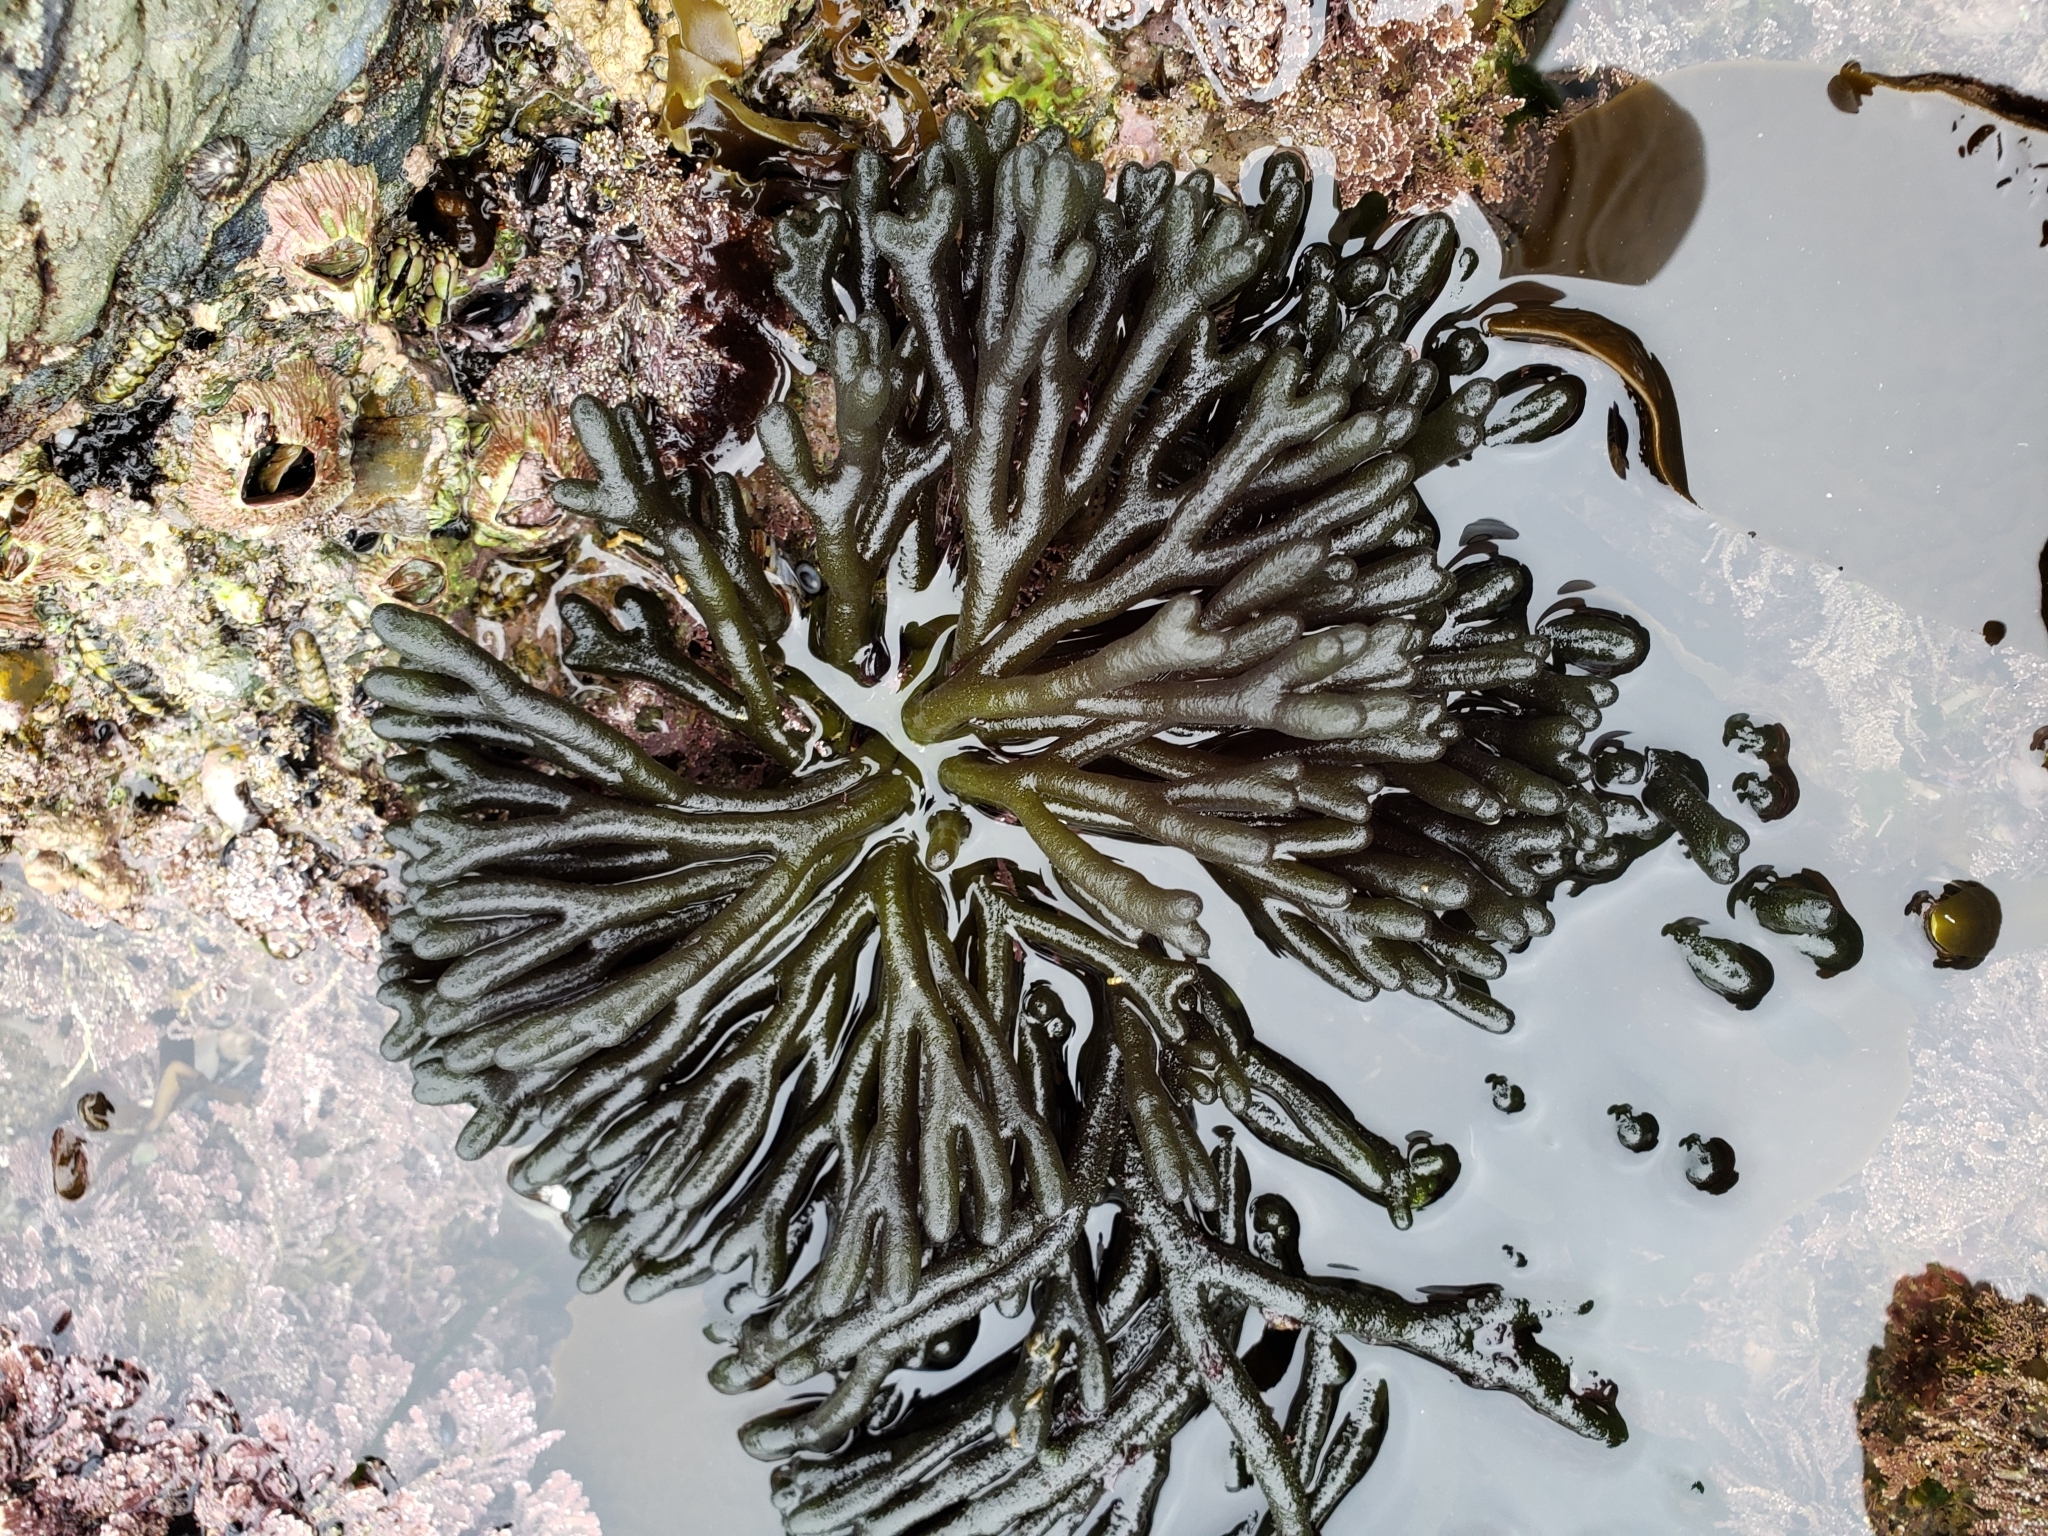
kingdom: Plantae
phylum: Chlorophyta
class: Ulvophyceae
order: Bryopsidales
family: Codiaceae
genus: Codium
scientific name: Codium fragile
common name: Dead man's fingers
